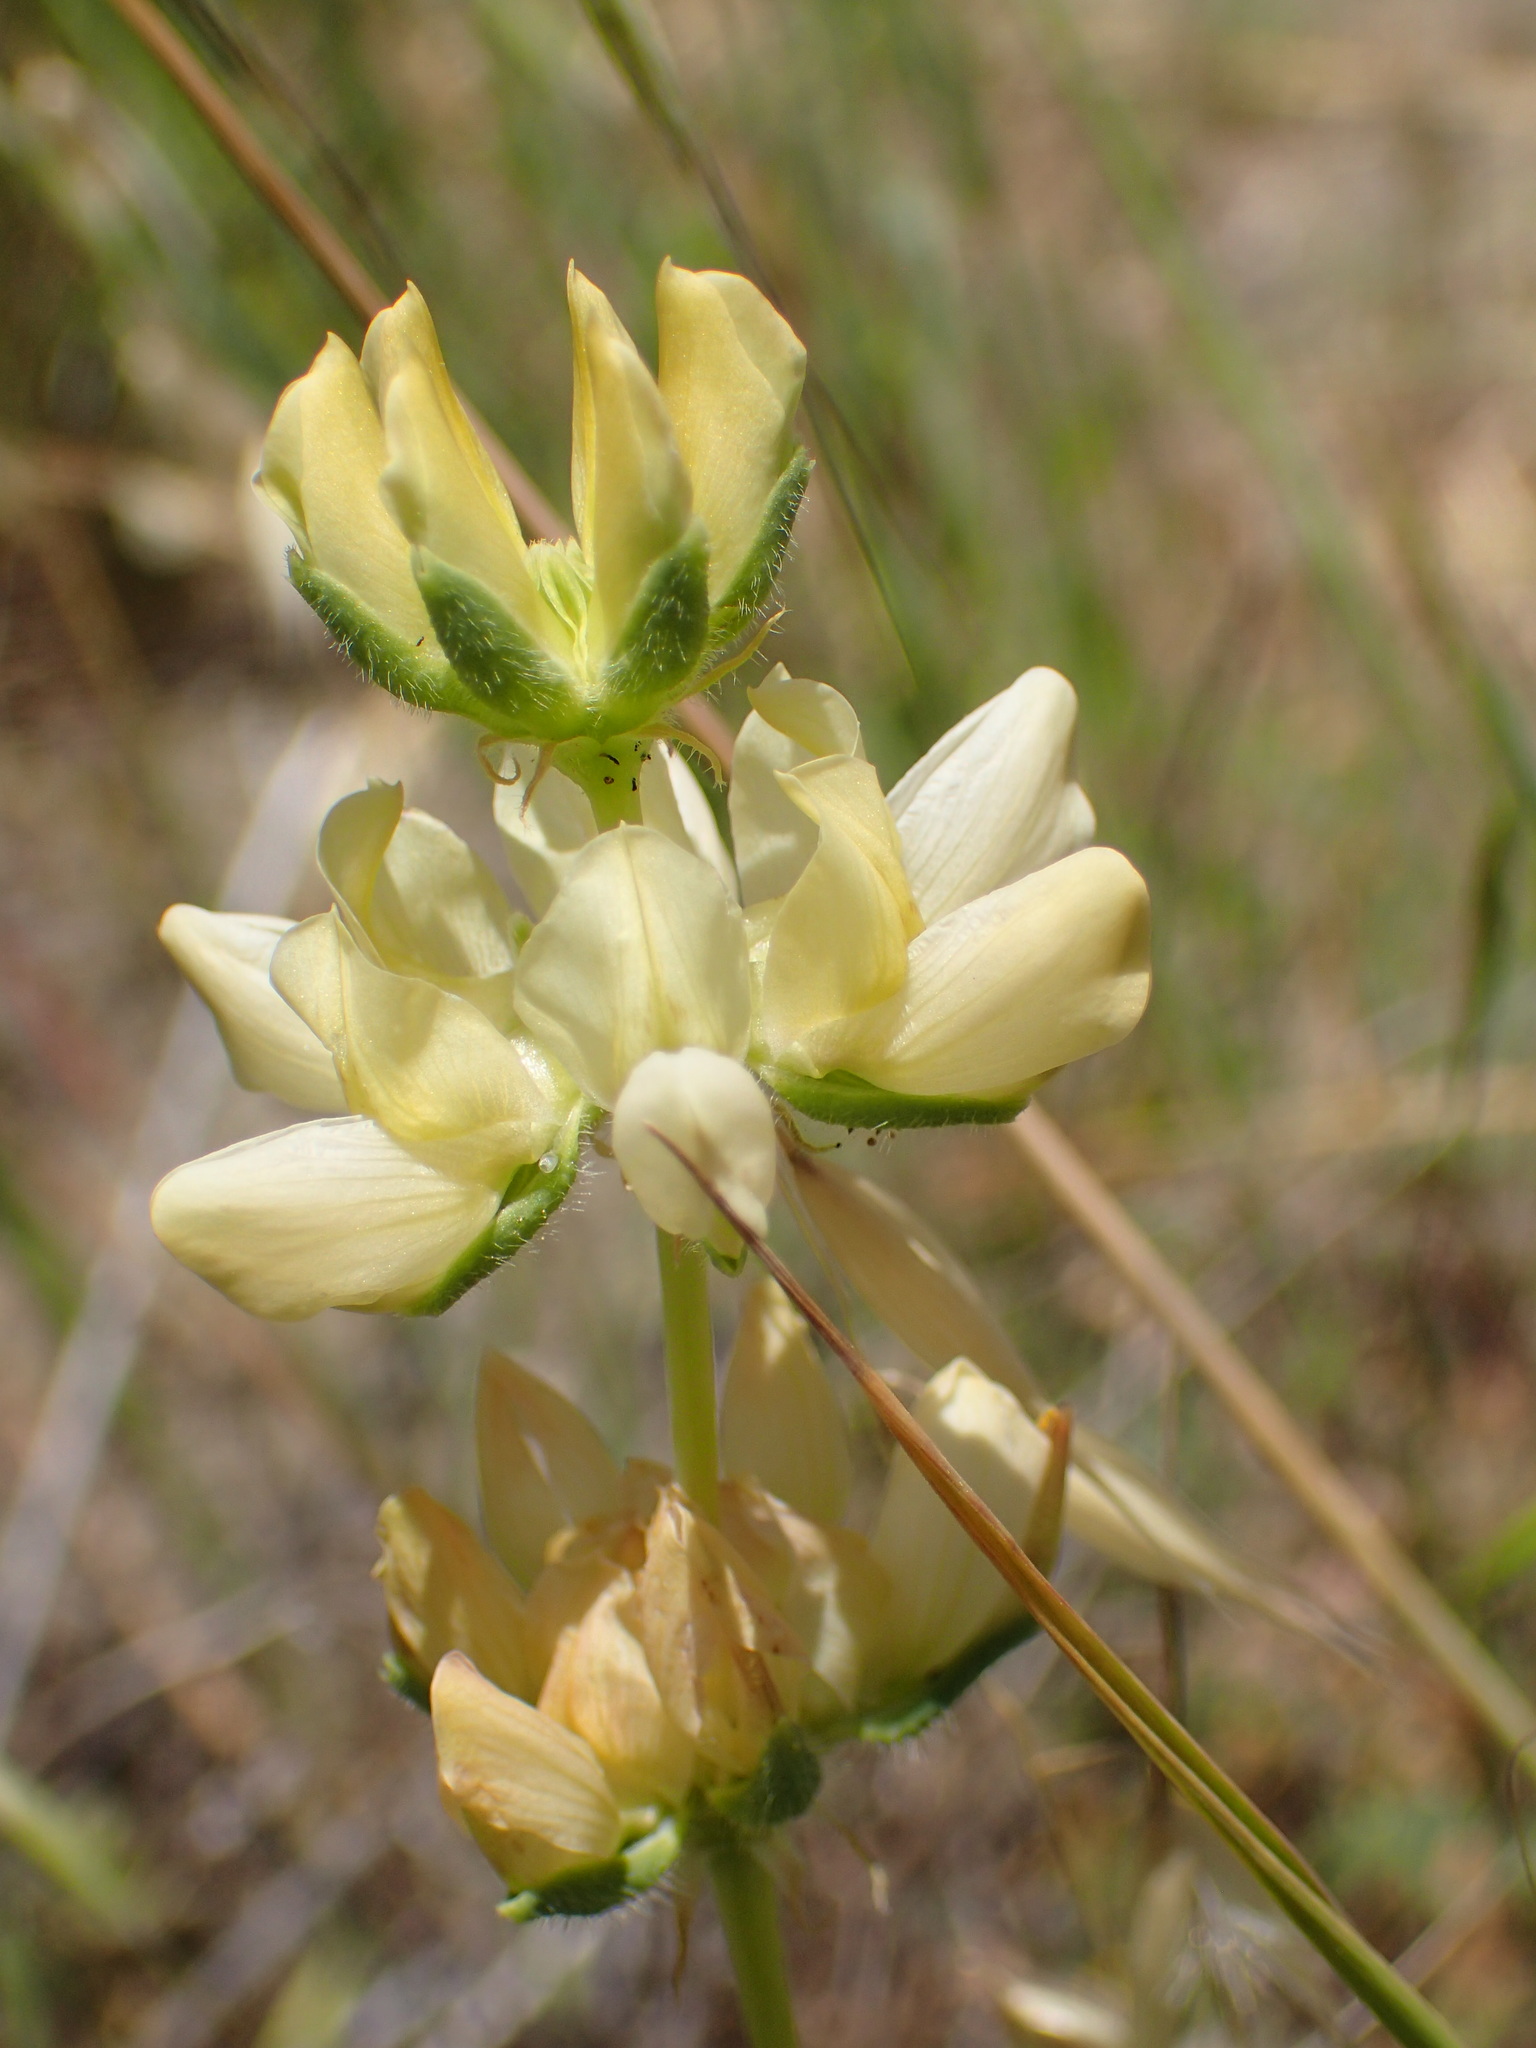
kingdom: Plantae
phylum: Tracheophyta
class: Magnoliopsida
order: Fabales
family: Fabaceae
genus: Lupinus
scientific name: Lupinus microcarpus
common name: Chick lupine
